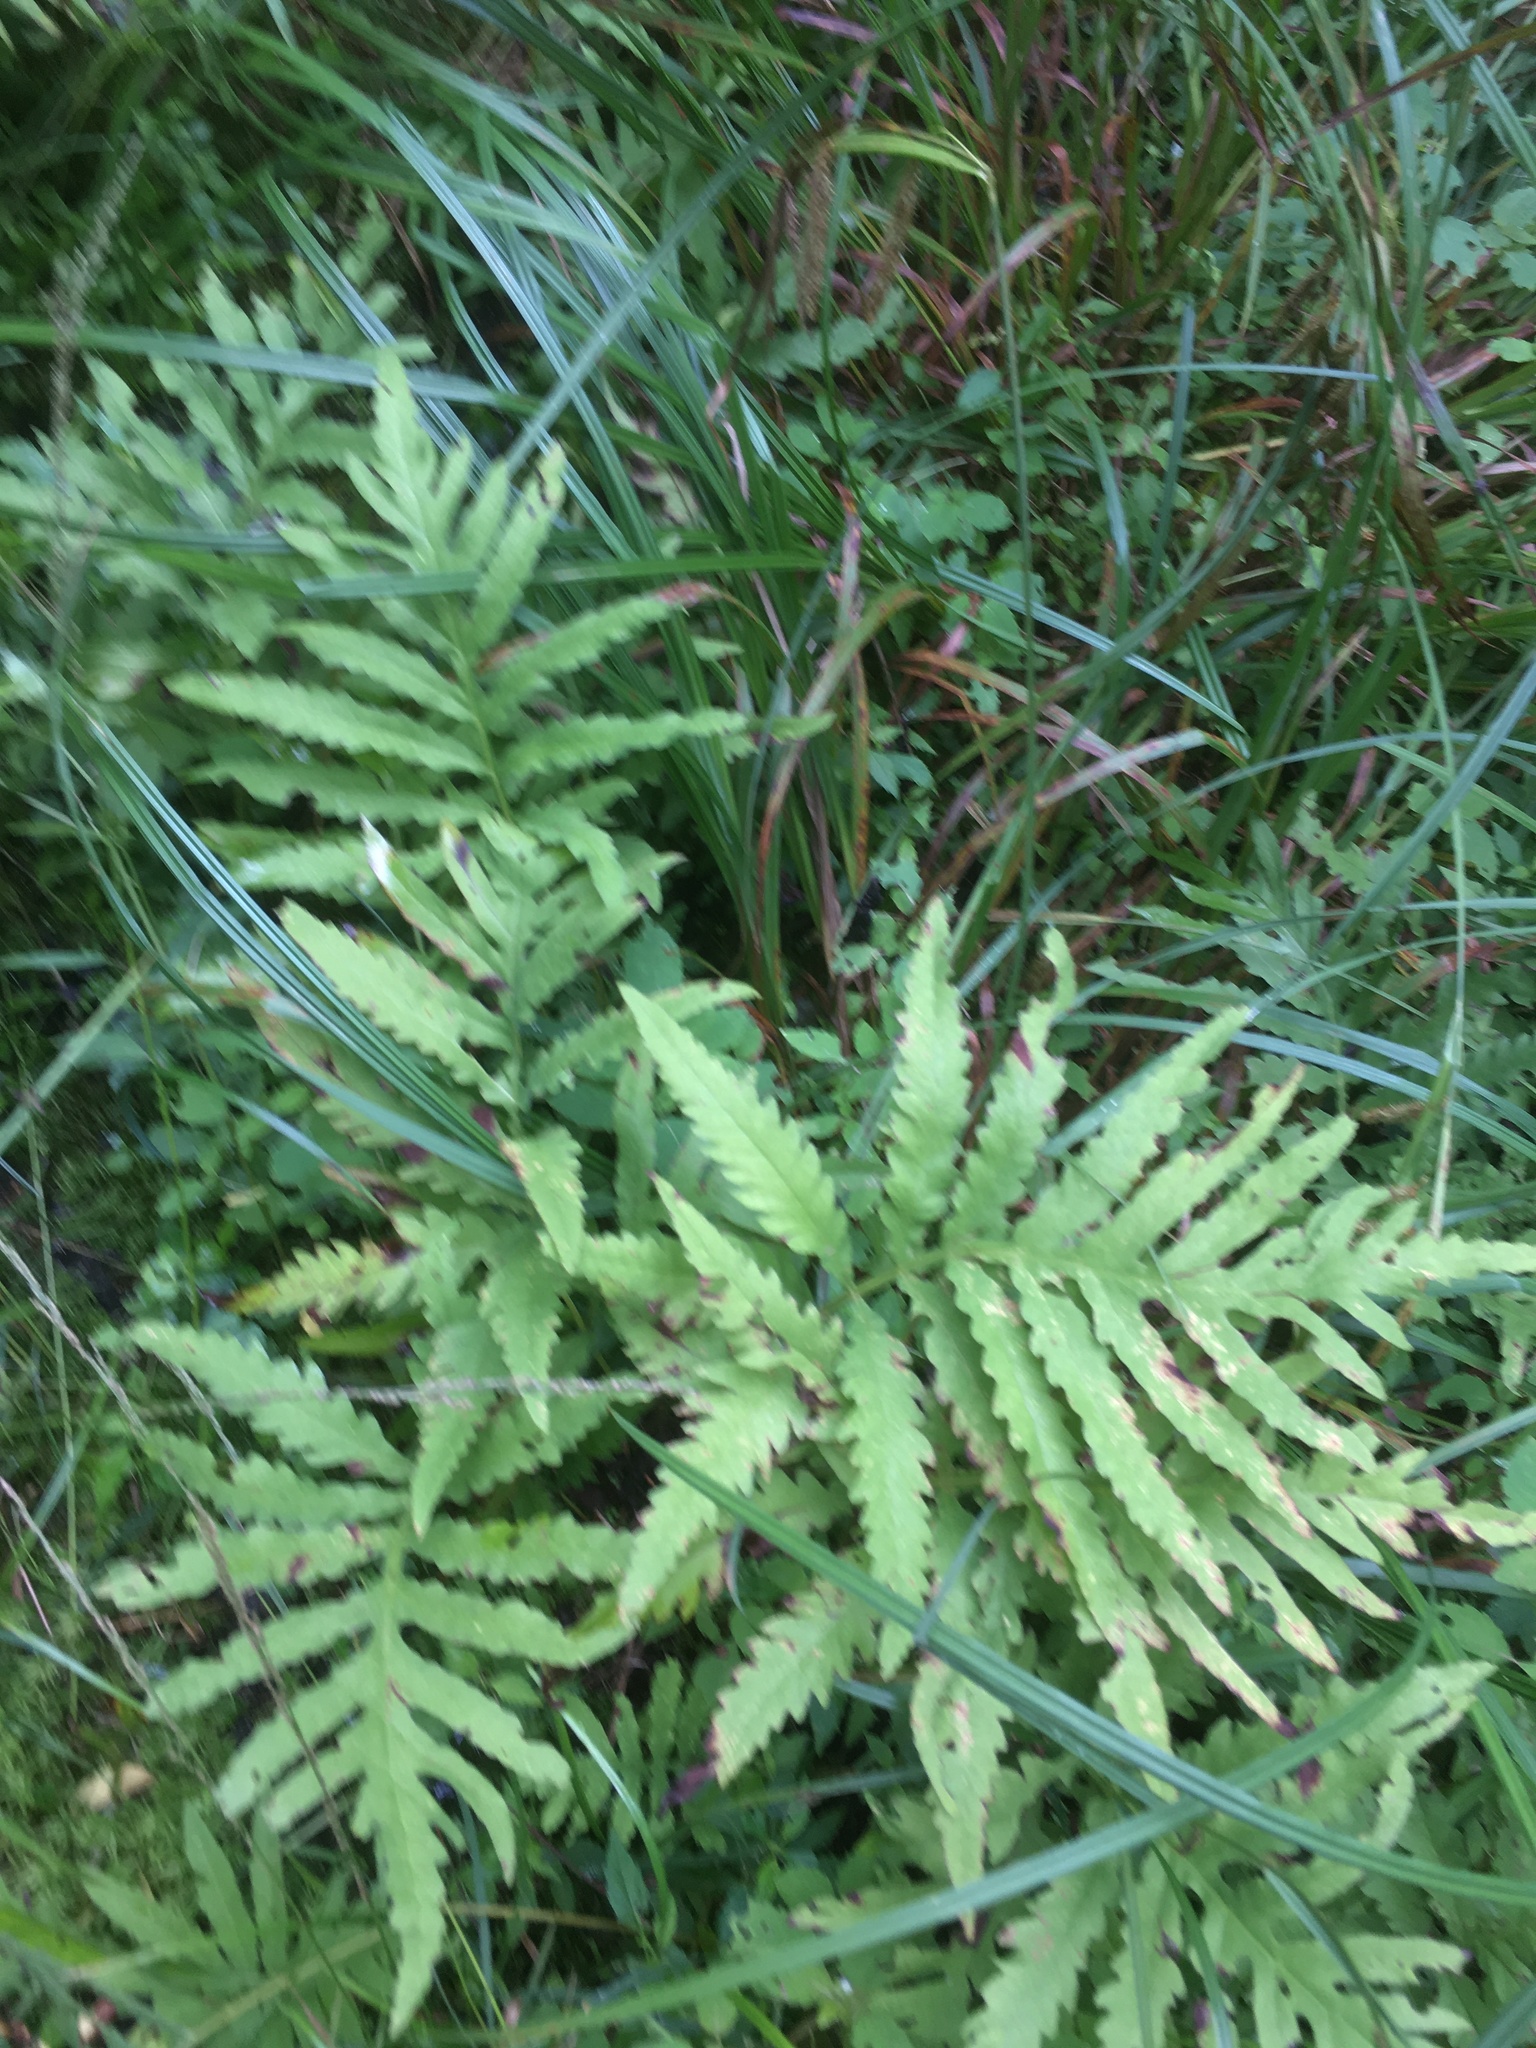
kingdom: Plantae
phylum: Tracheophyta
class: Polypodiopsida
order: Polypodiales
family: Onocleaceae
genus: Onoclea
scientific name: Onoclea sensibilis
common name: Sensitive fern
